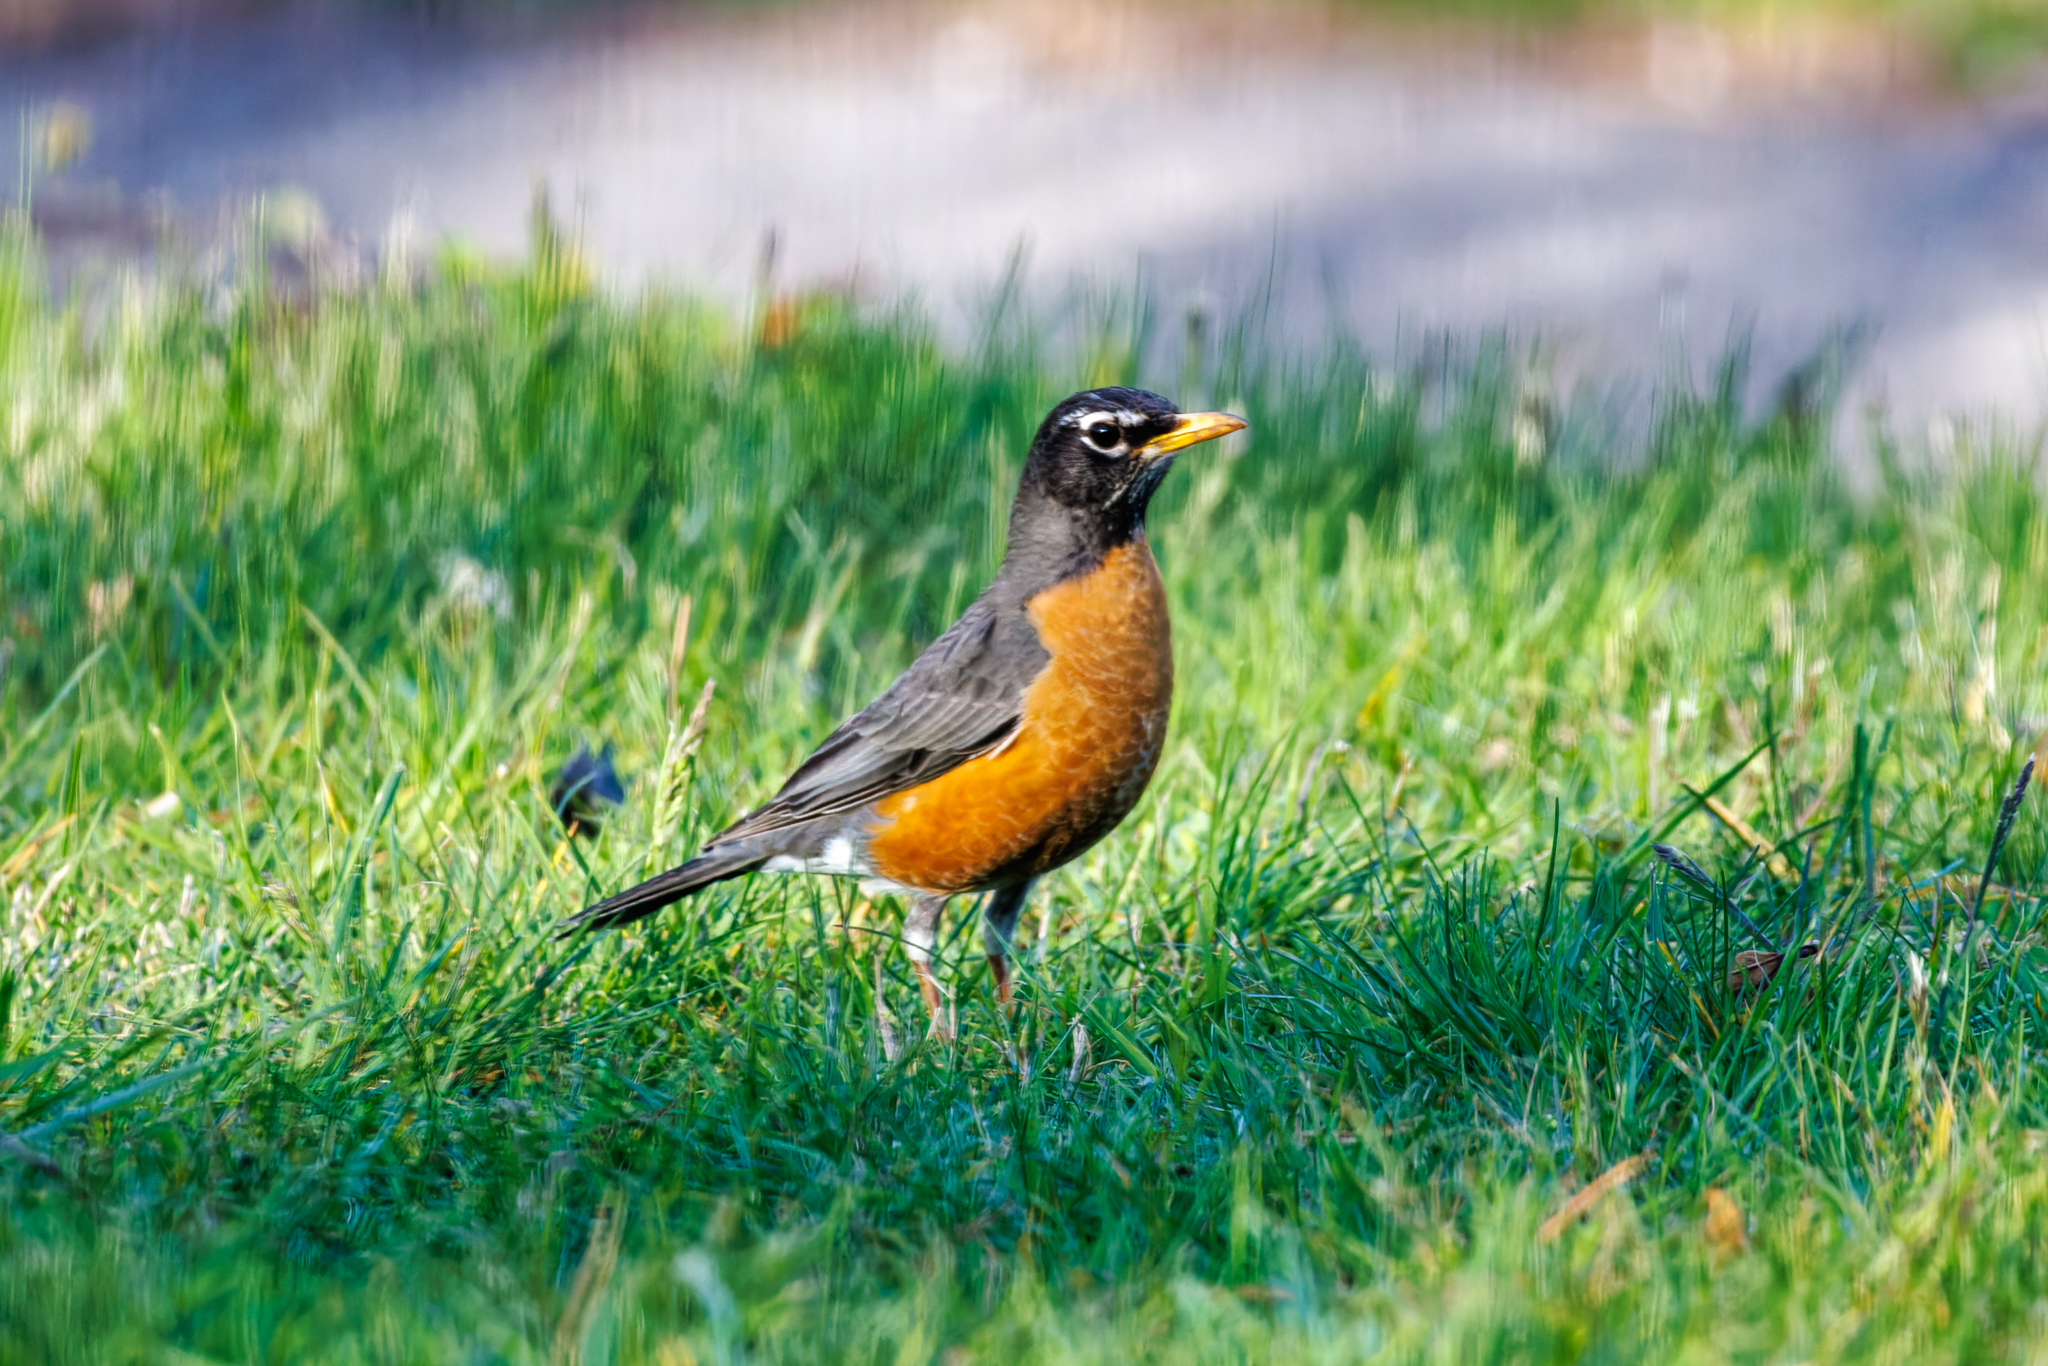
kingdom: Animalia
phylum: Chordata
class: Aves
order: Passeriformes
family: Turdidae
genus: Turdus
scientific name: Turdus migratorius
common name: American robin
